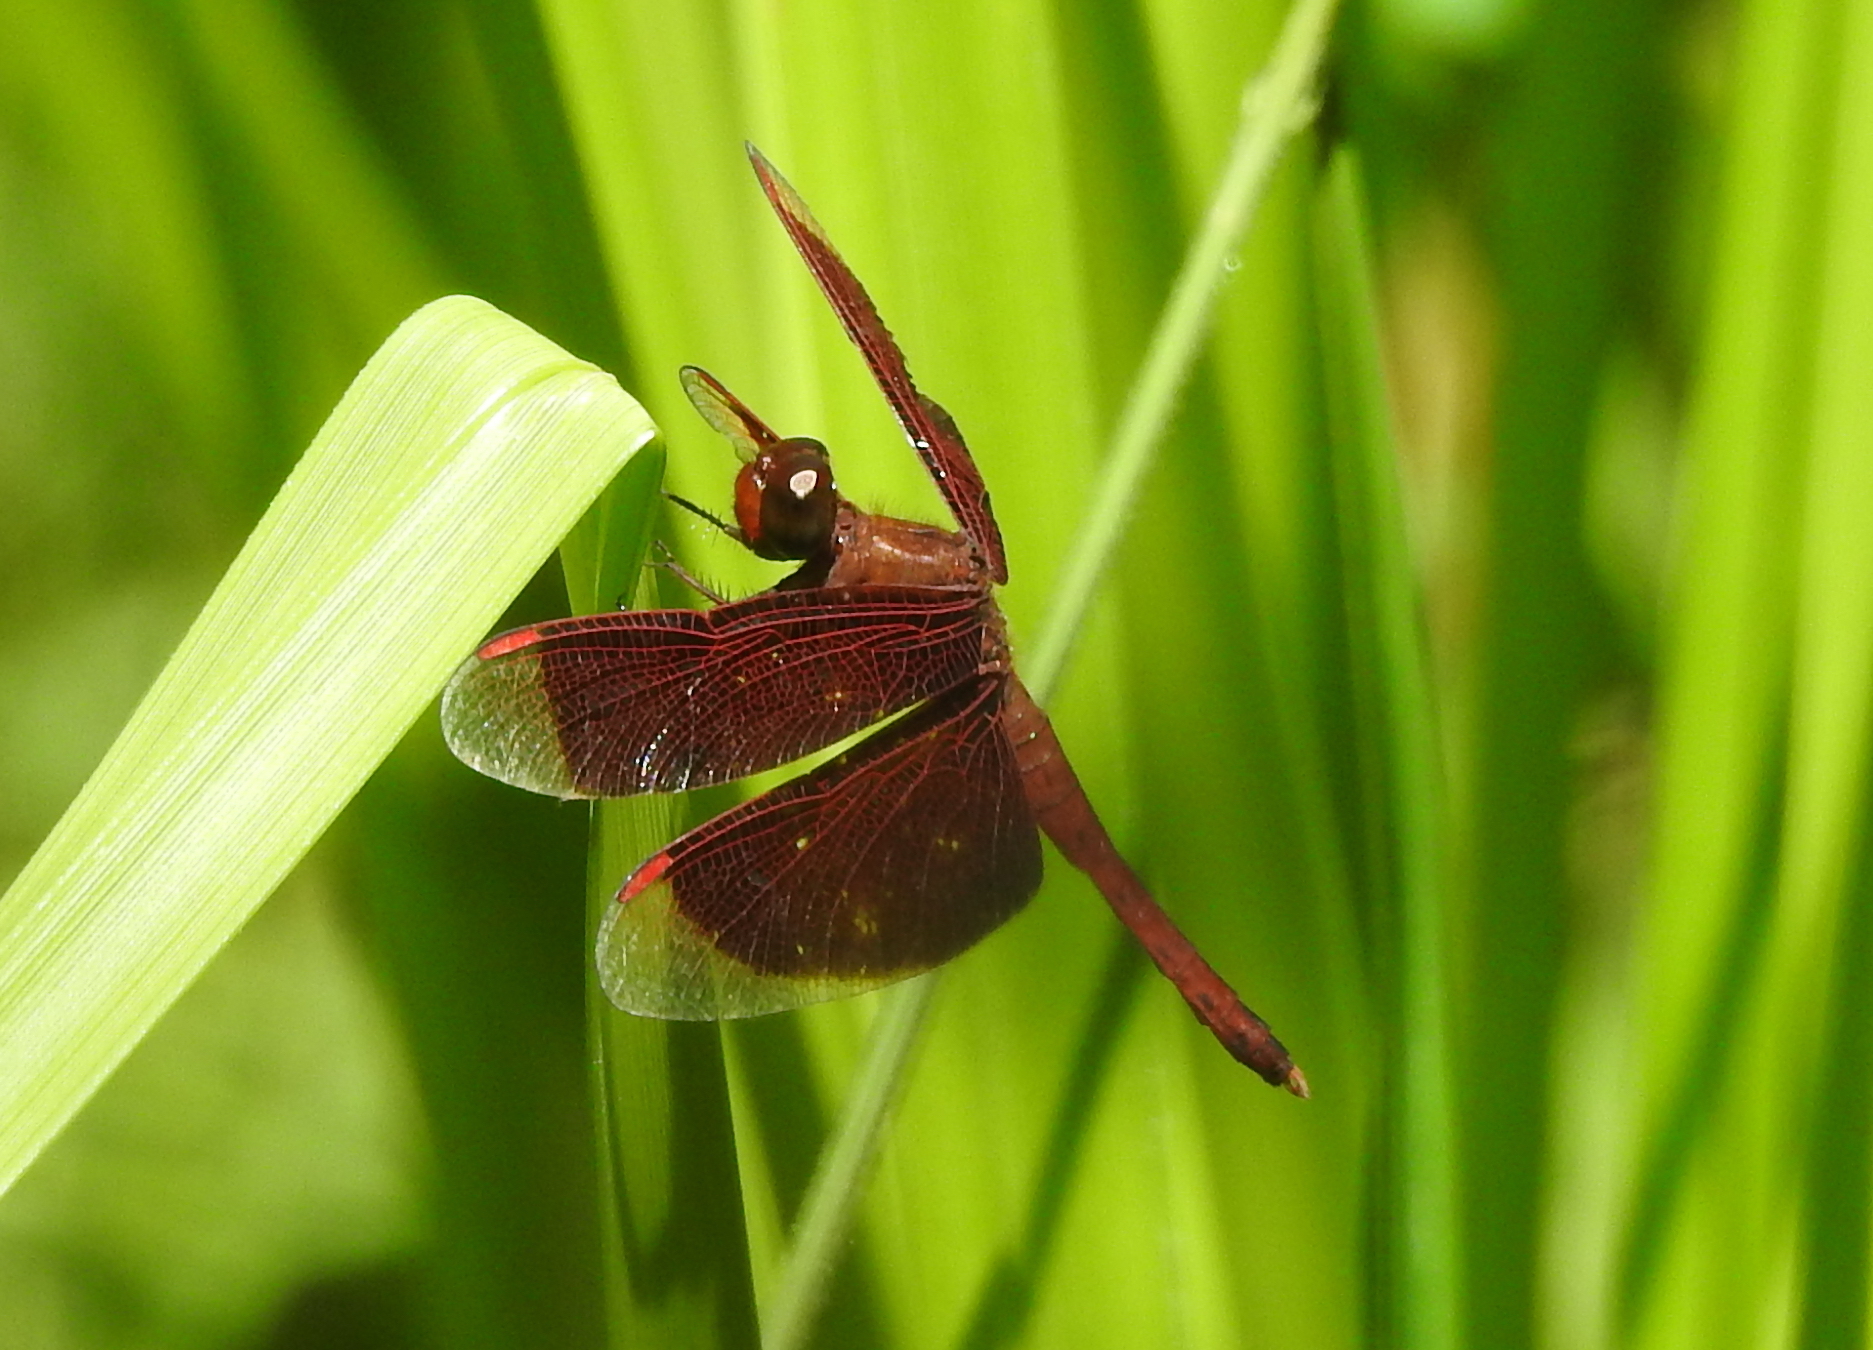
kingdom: Animalia
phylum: Arthropoda
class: Insecta
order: Odonata
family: Libellulidae
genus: Neurothemis
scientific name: Neurothemis fluctuans
